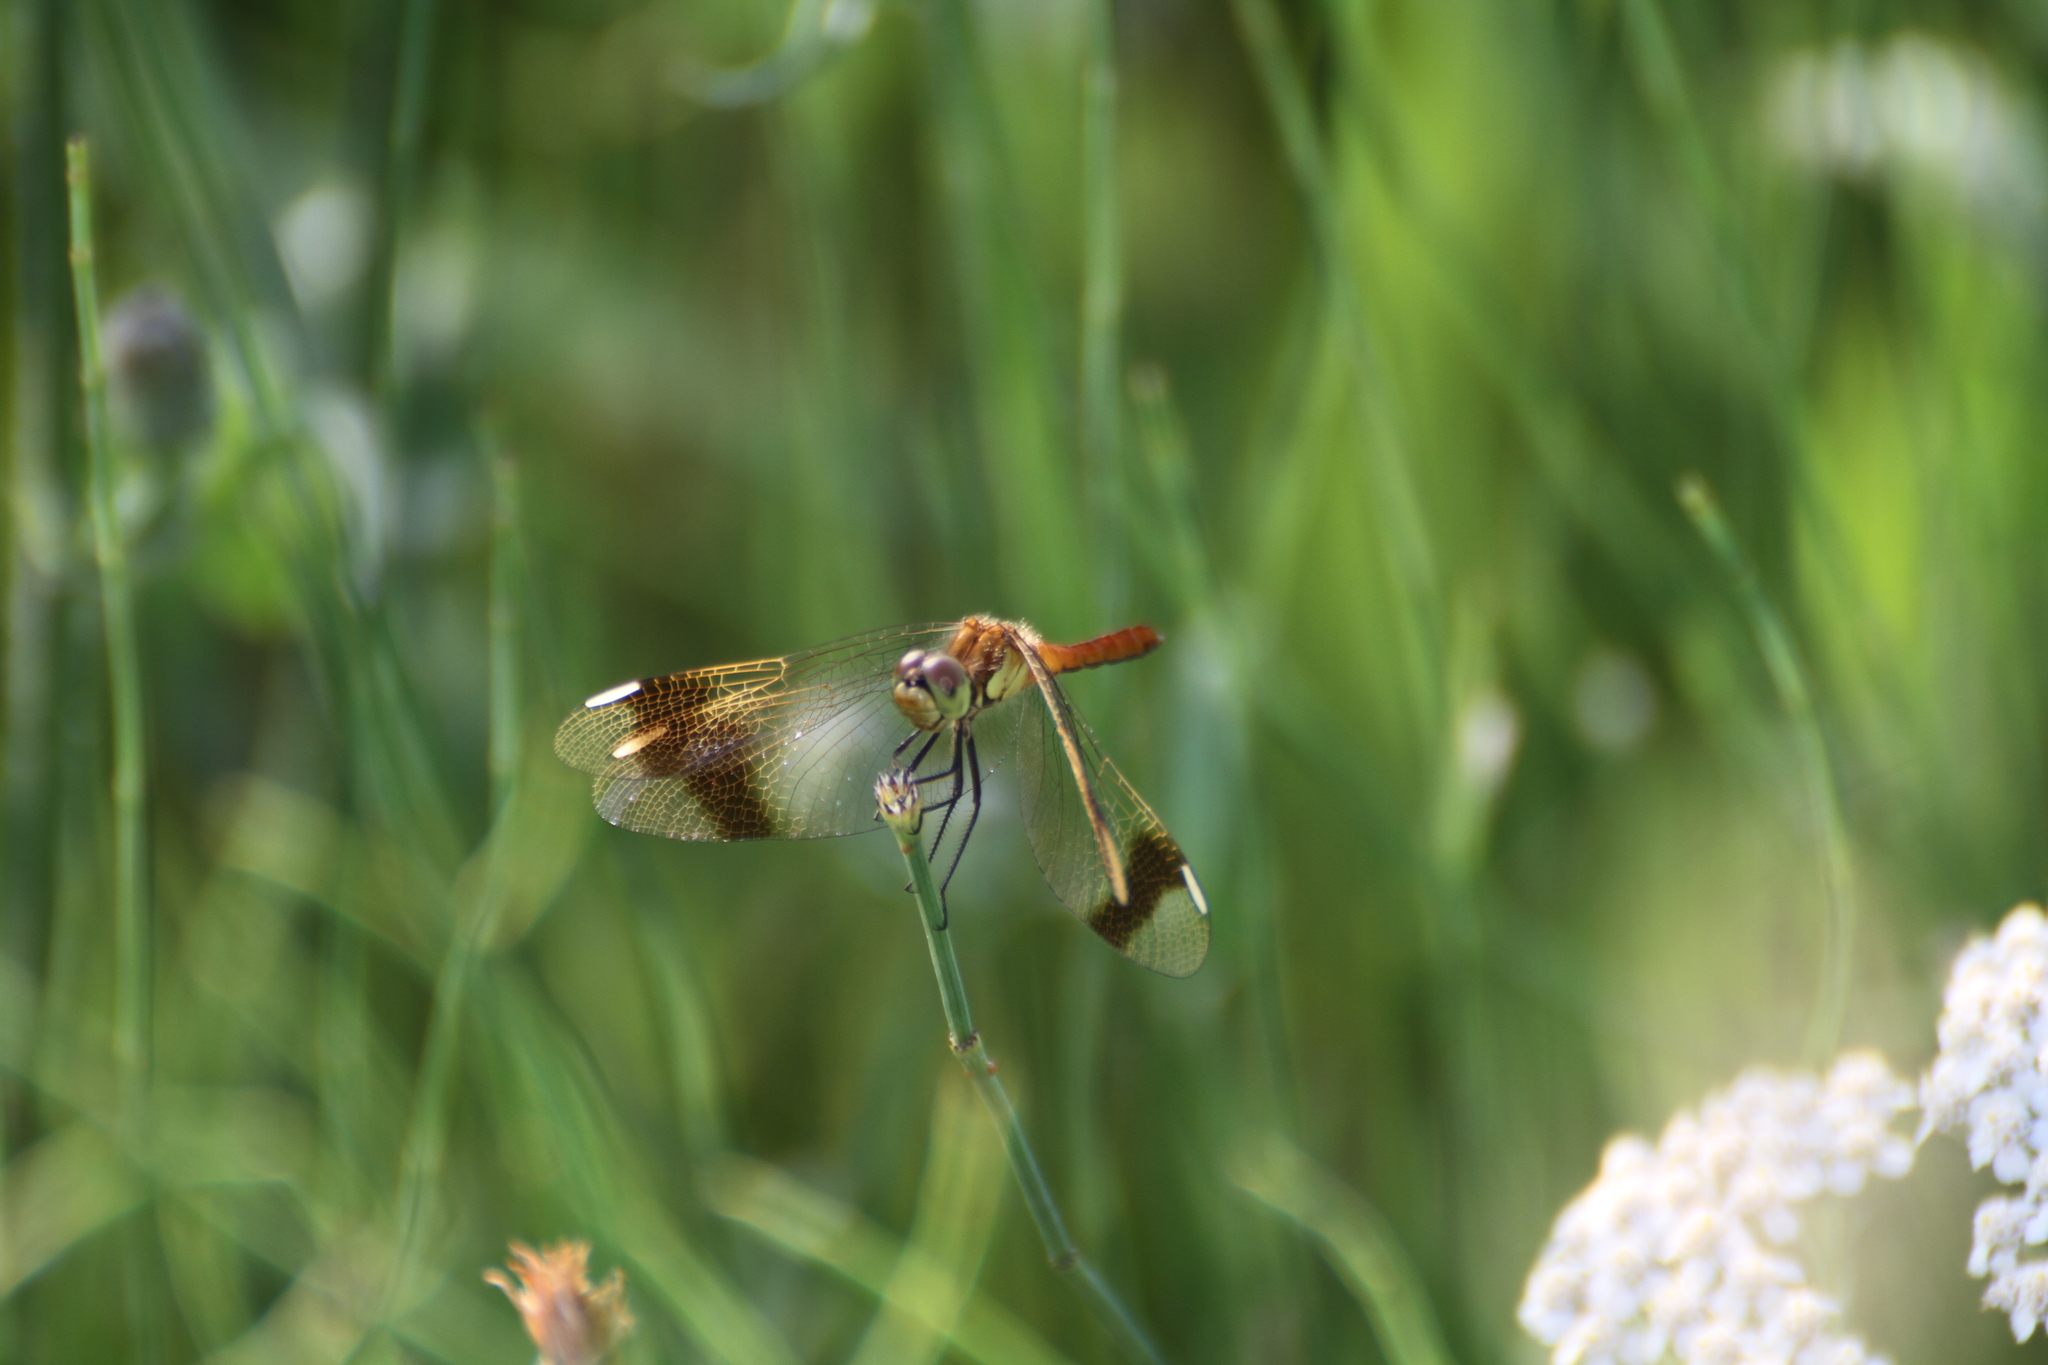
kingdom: Animalia
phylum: Arthropoda
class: Insecta
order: Odonata
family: Libellulidae
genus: Sympetrum
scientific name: Sympetrum pedemontanum
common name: Banded darter
